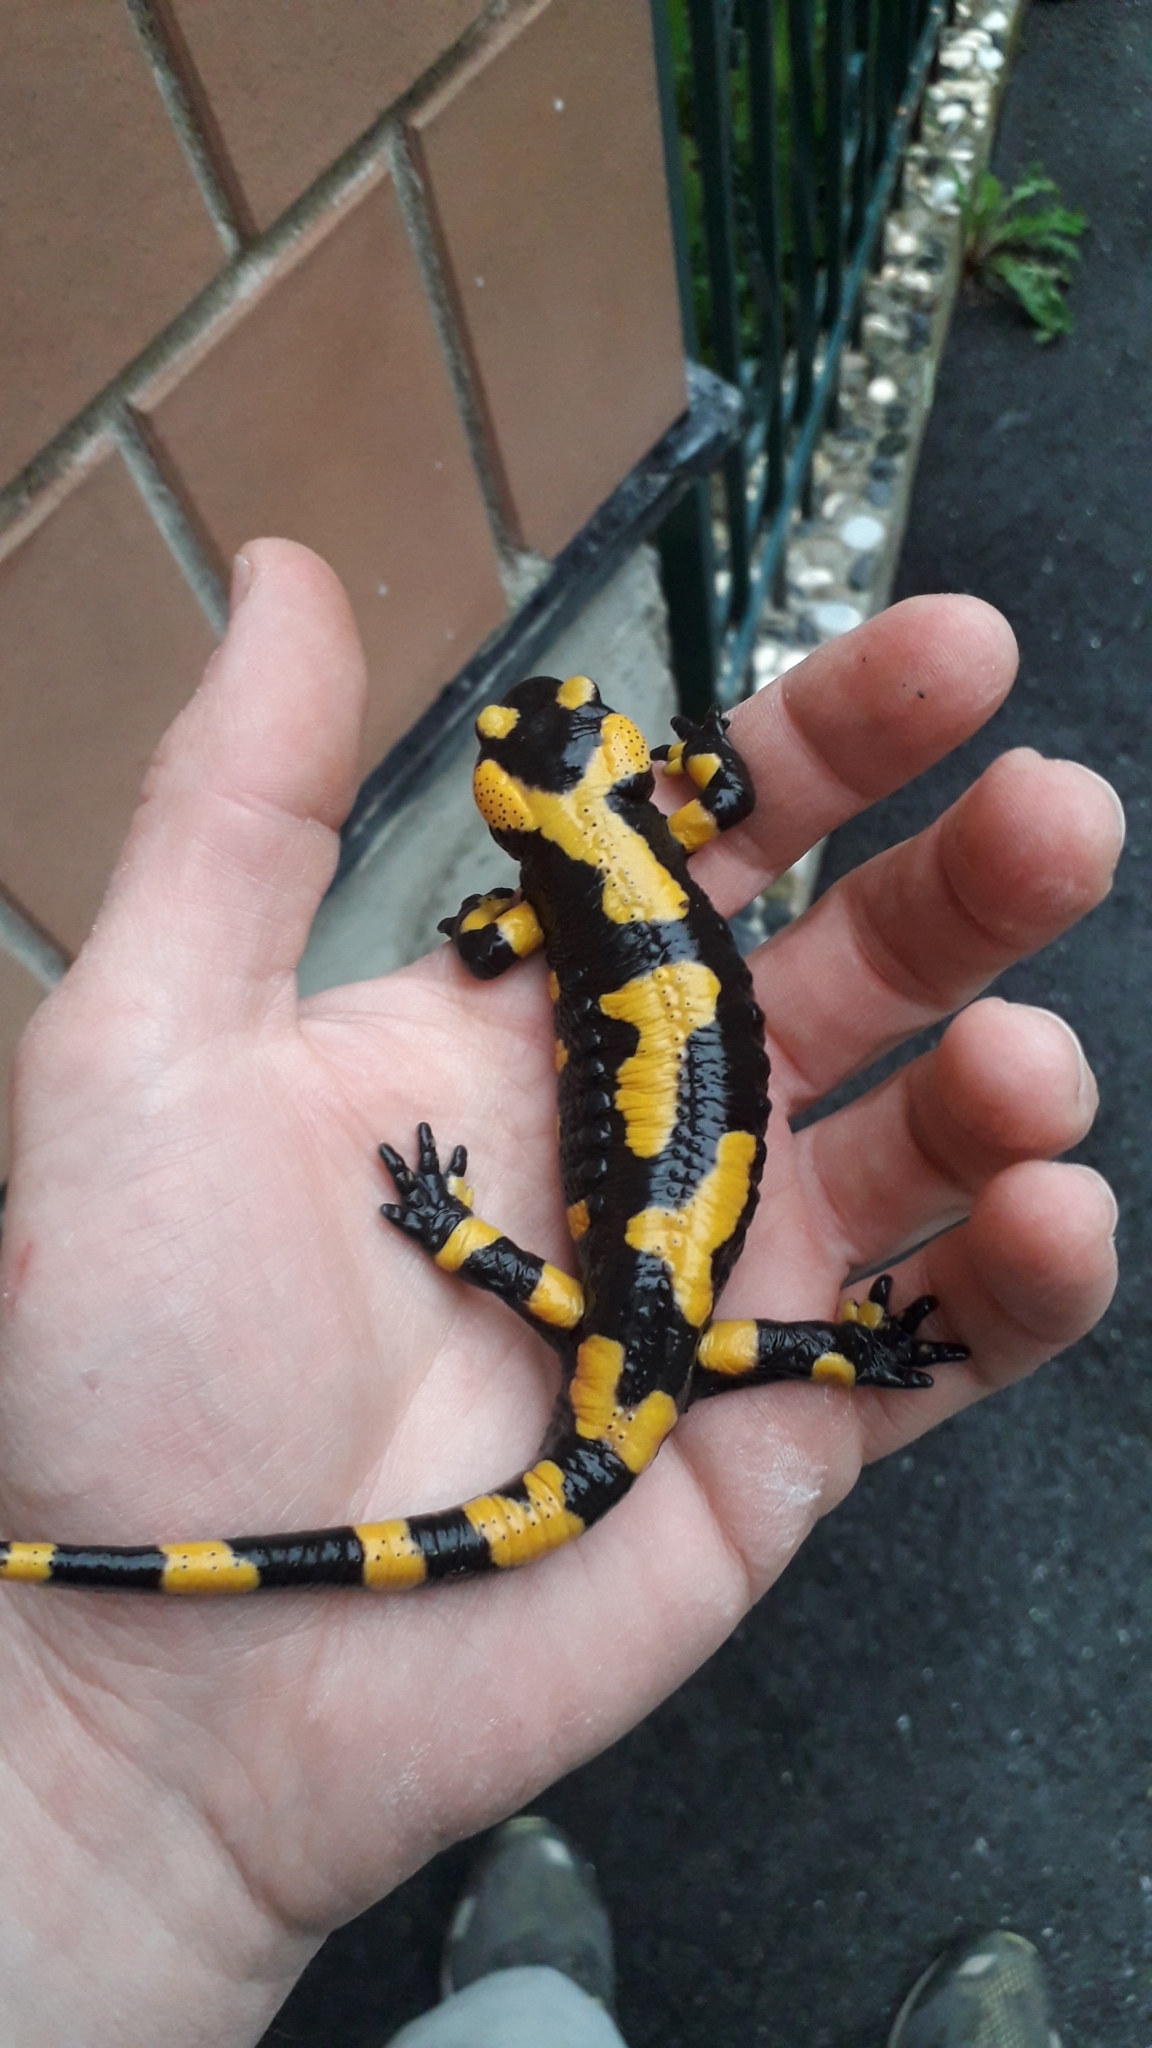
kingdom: Animalia
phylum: Chordata
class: Amphibia
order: Caudata
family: Salamandridae
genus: Salamandra
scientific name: Salamandra salamandra
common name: Fire salamander
